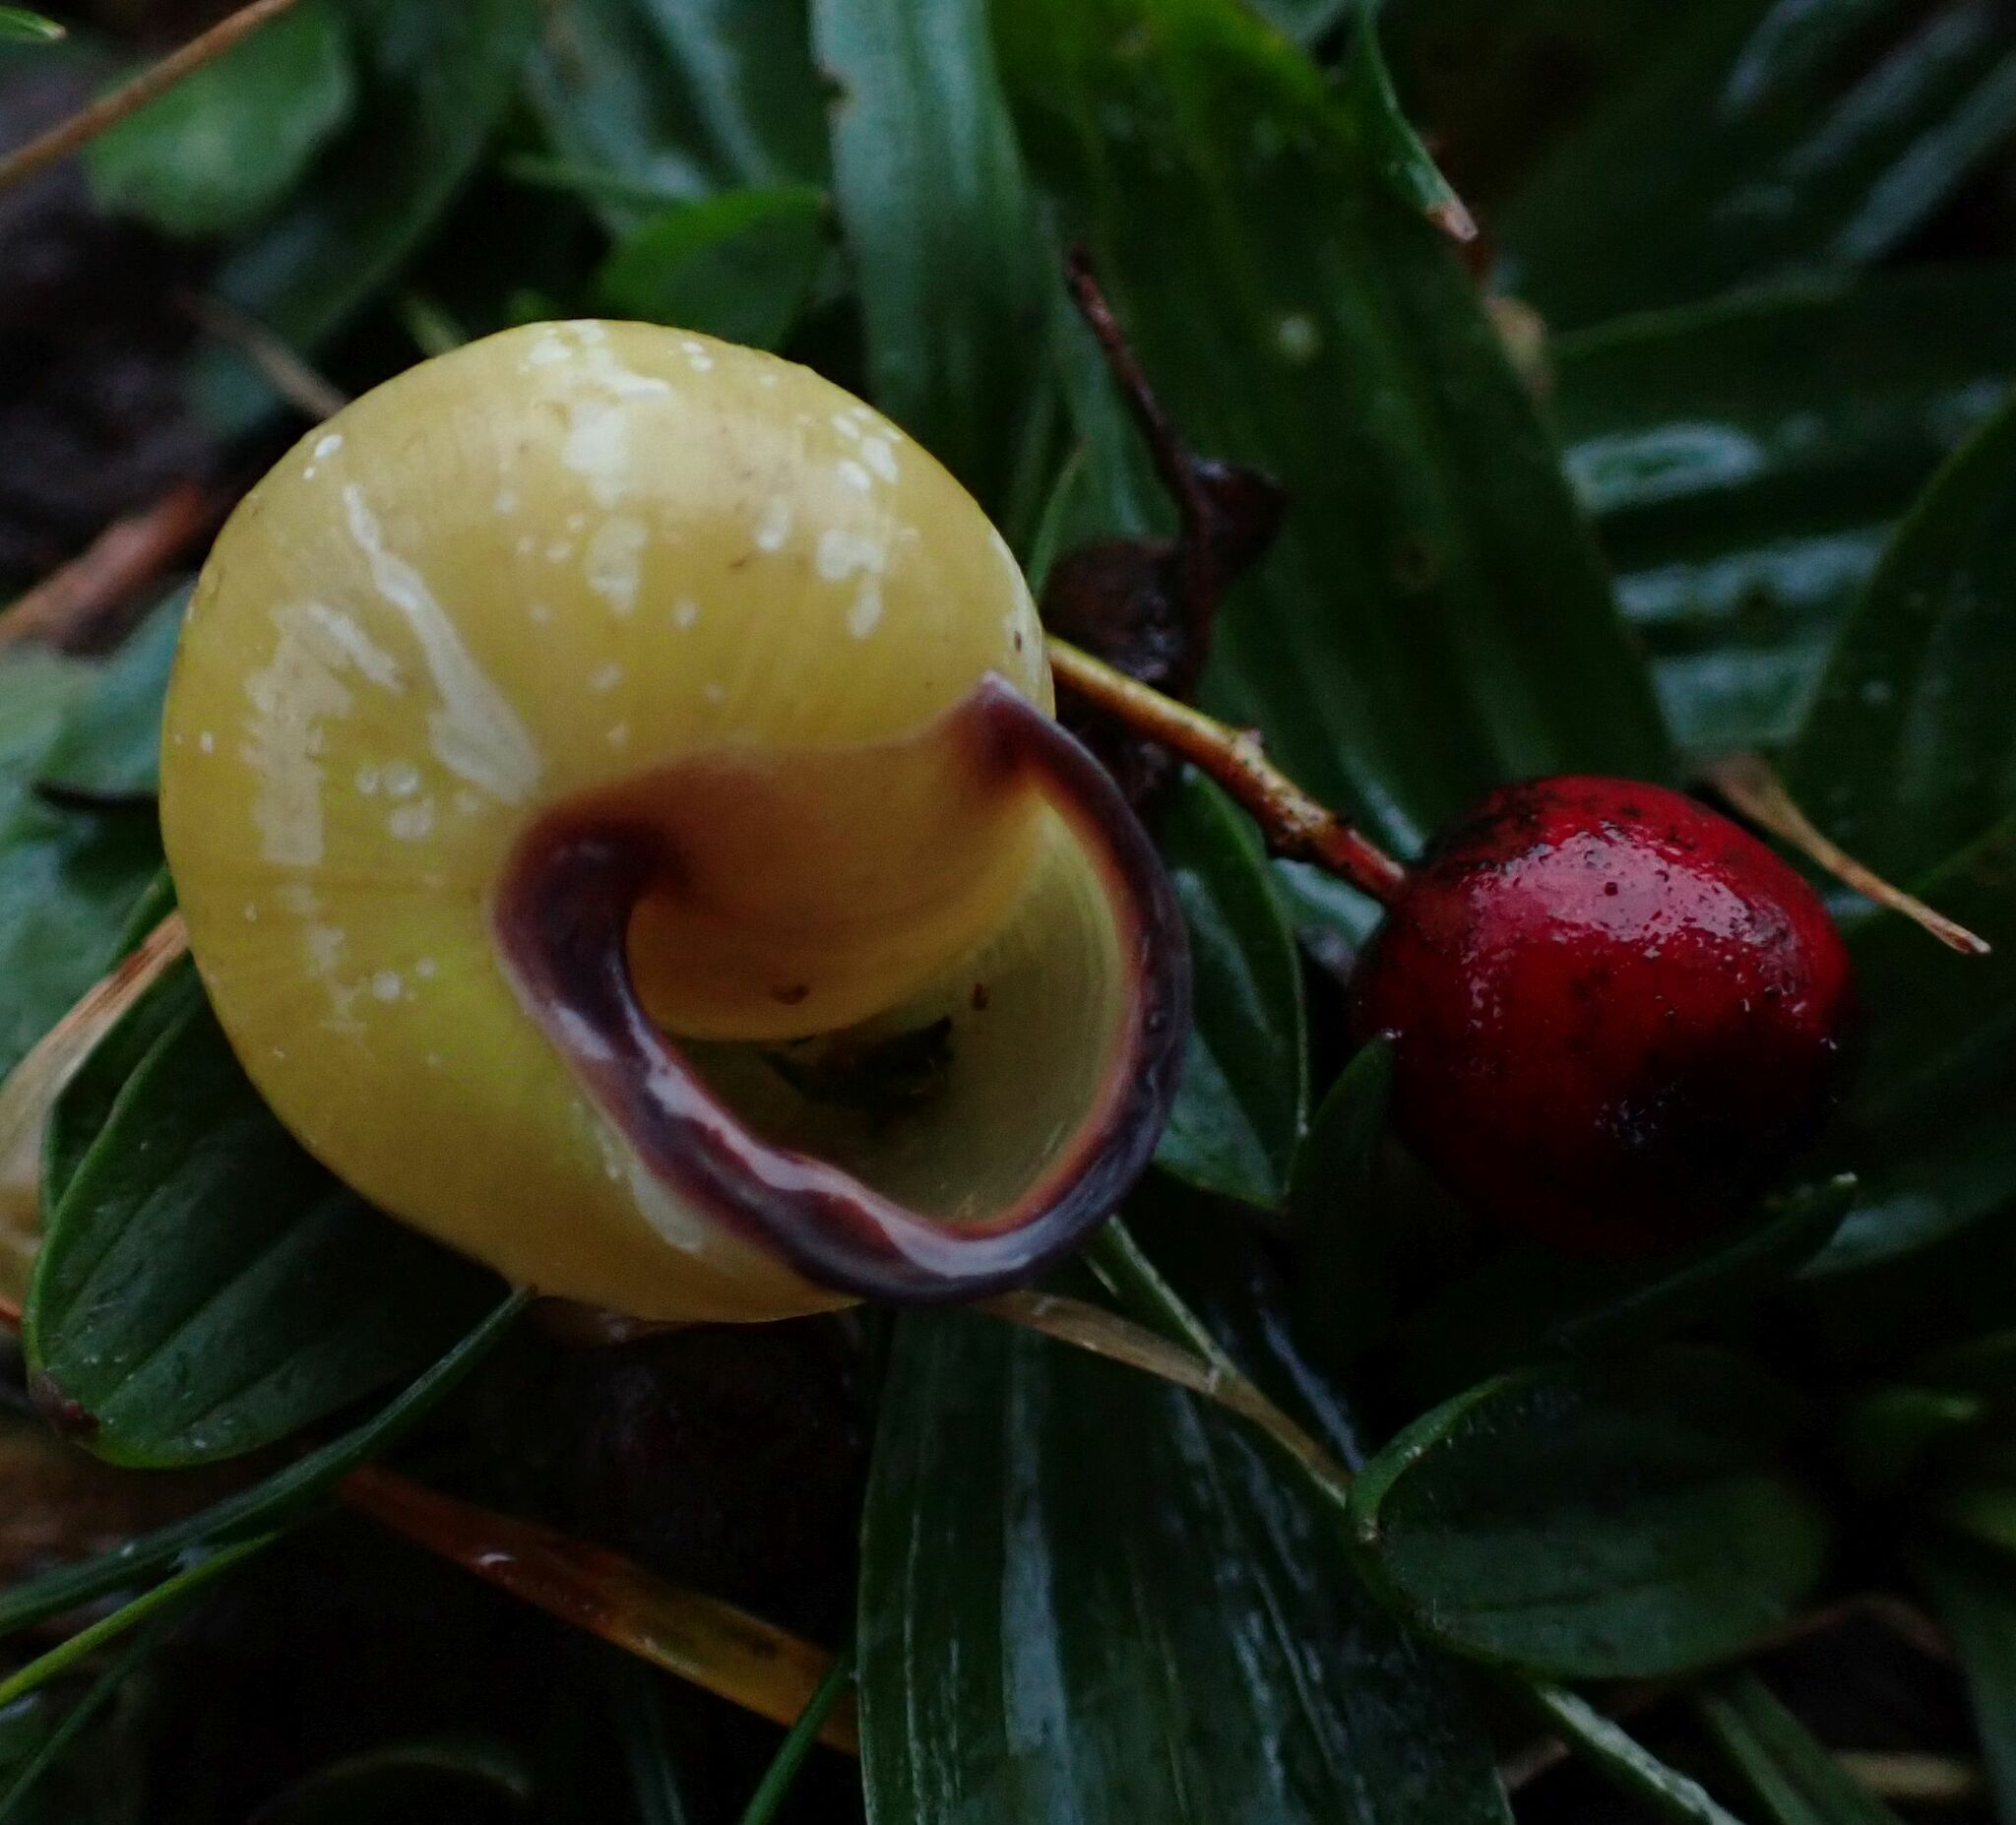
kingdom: Animalia
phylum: Mollusca
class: Gastropoda
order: Stylommatophora
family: Helicidae
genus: Cepaea
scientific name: Cepaea nemoralis
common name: Grovesnail
